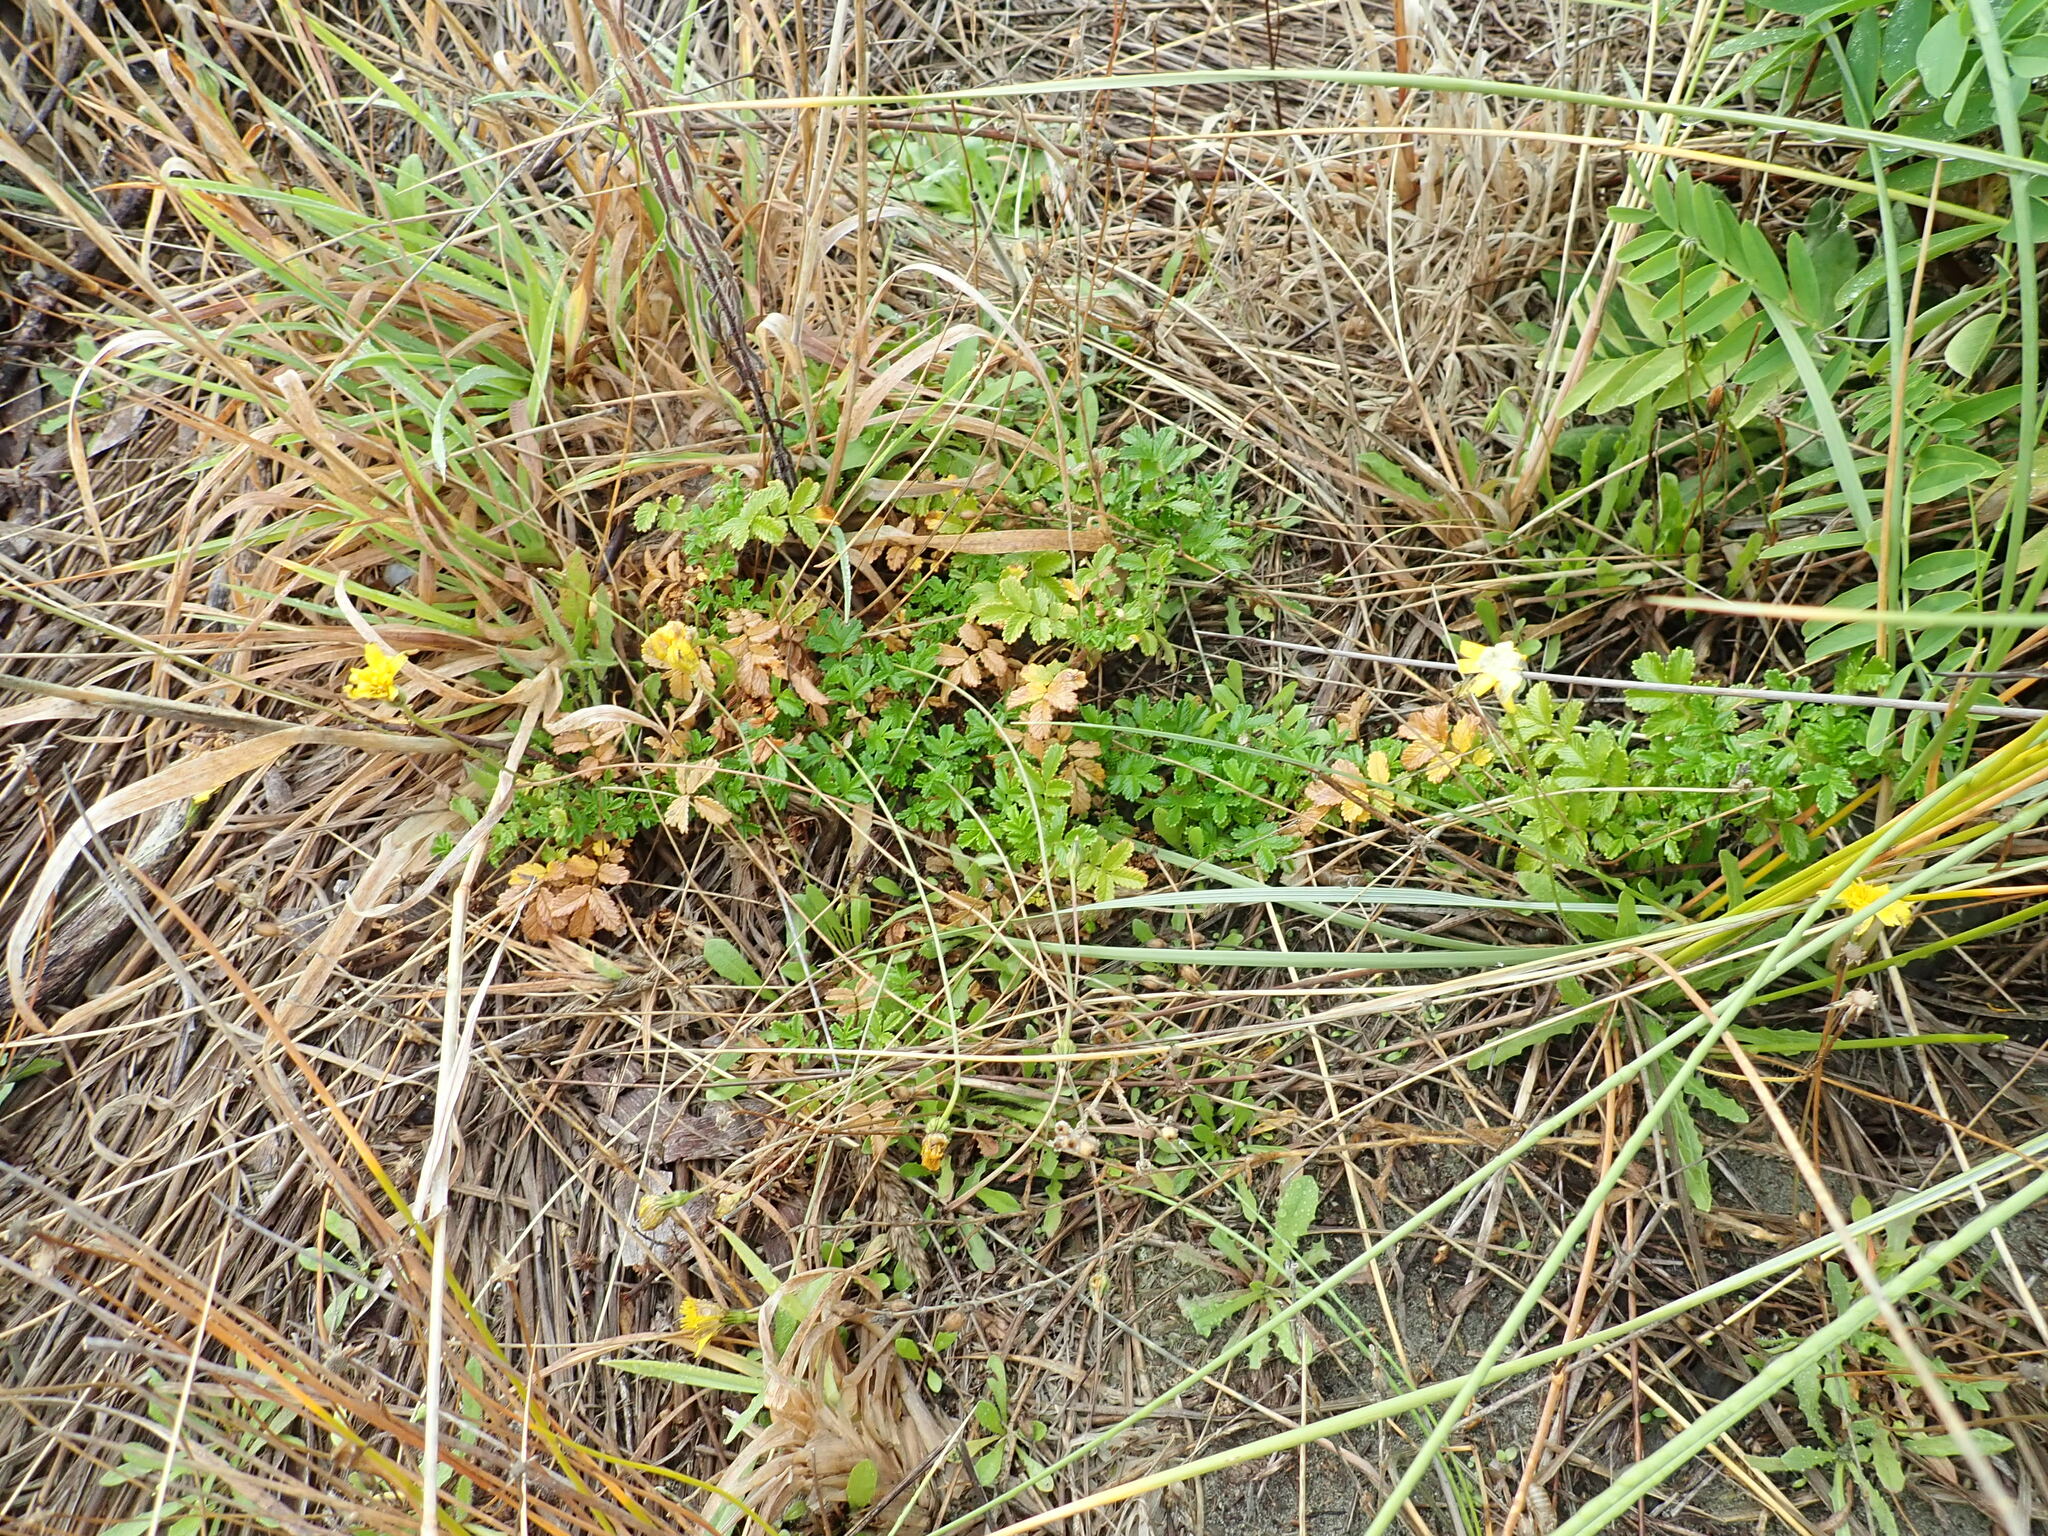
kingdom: Plantae
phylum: Tracheophyta
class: Magnoliopsida
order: Rosales
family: Rosaceae
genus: Acaena
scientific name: Acaena novae-zelandiae
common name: Pirri-pirri-bur
